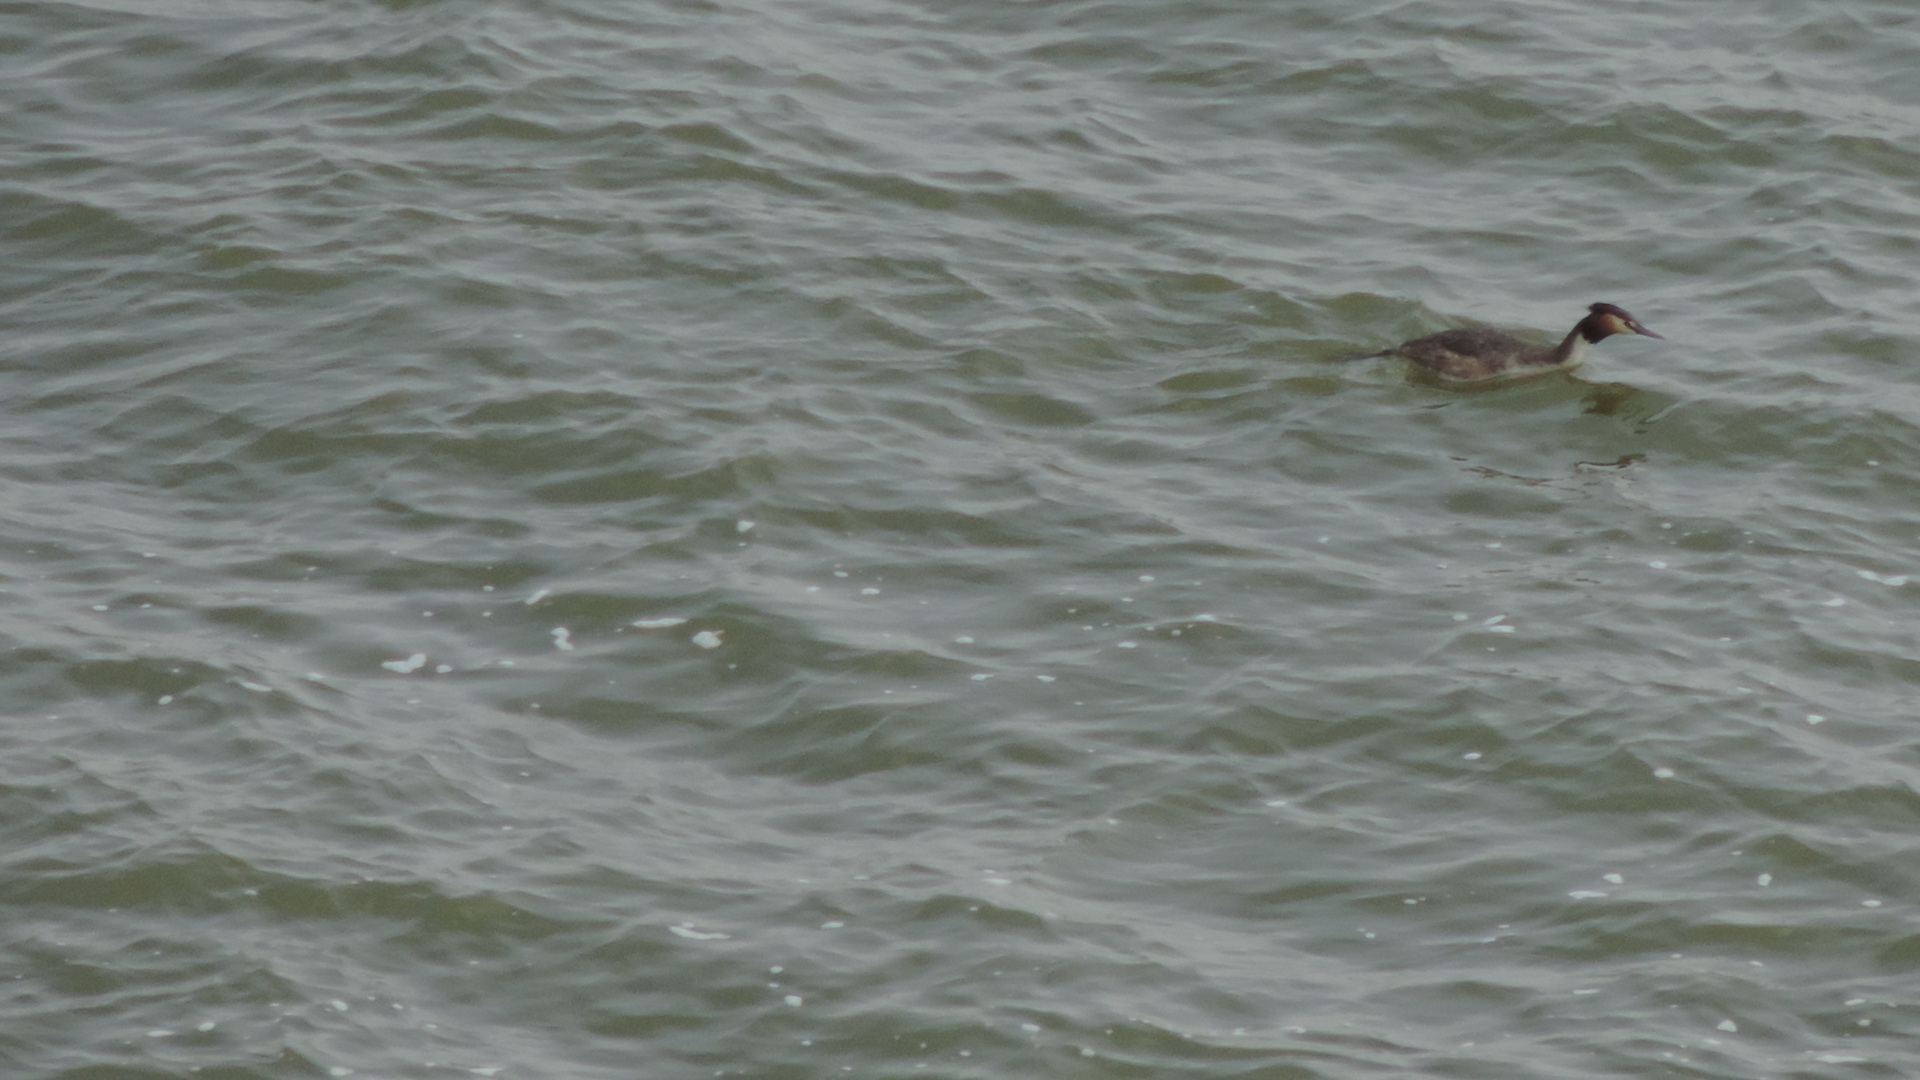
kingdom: Animalia
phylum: Chordata
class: Aves
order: Podicipediformes
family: Podicipedidae
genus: Podiceps
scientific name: Podiceps cristatus
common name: Great crested grebe
